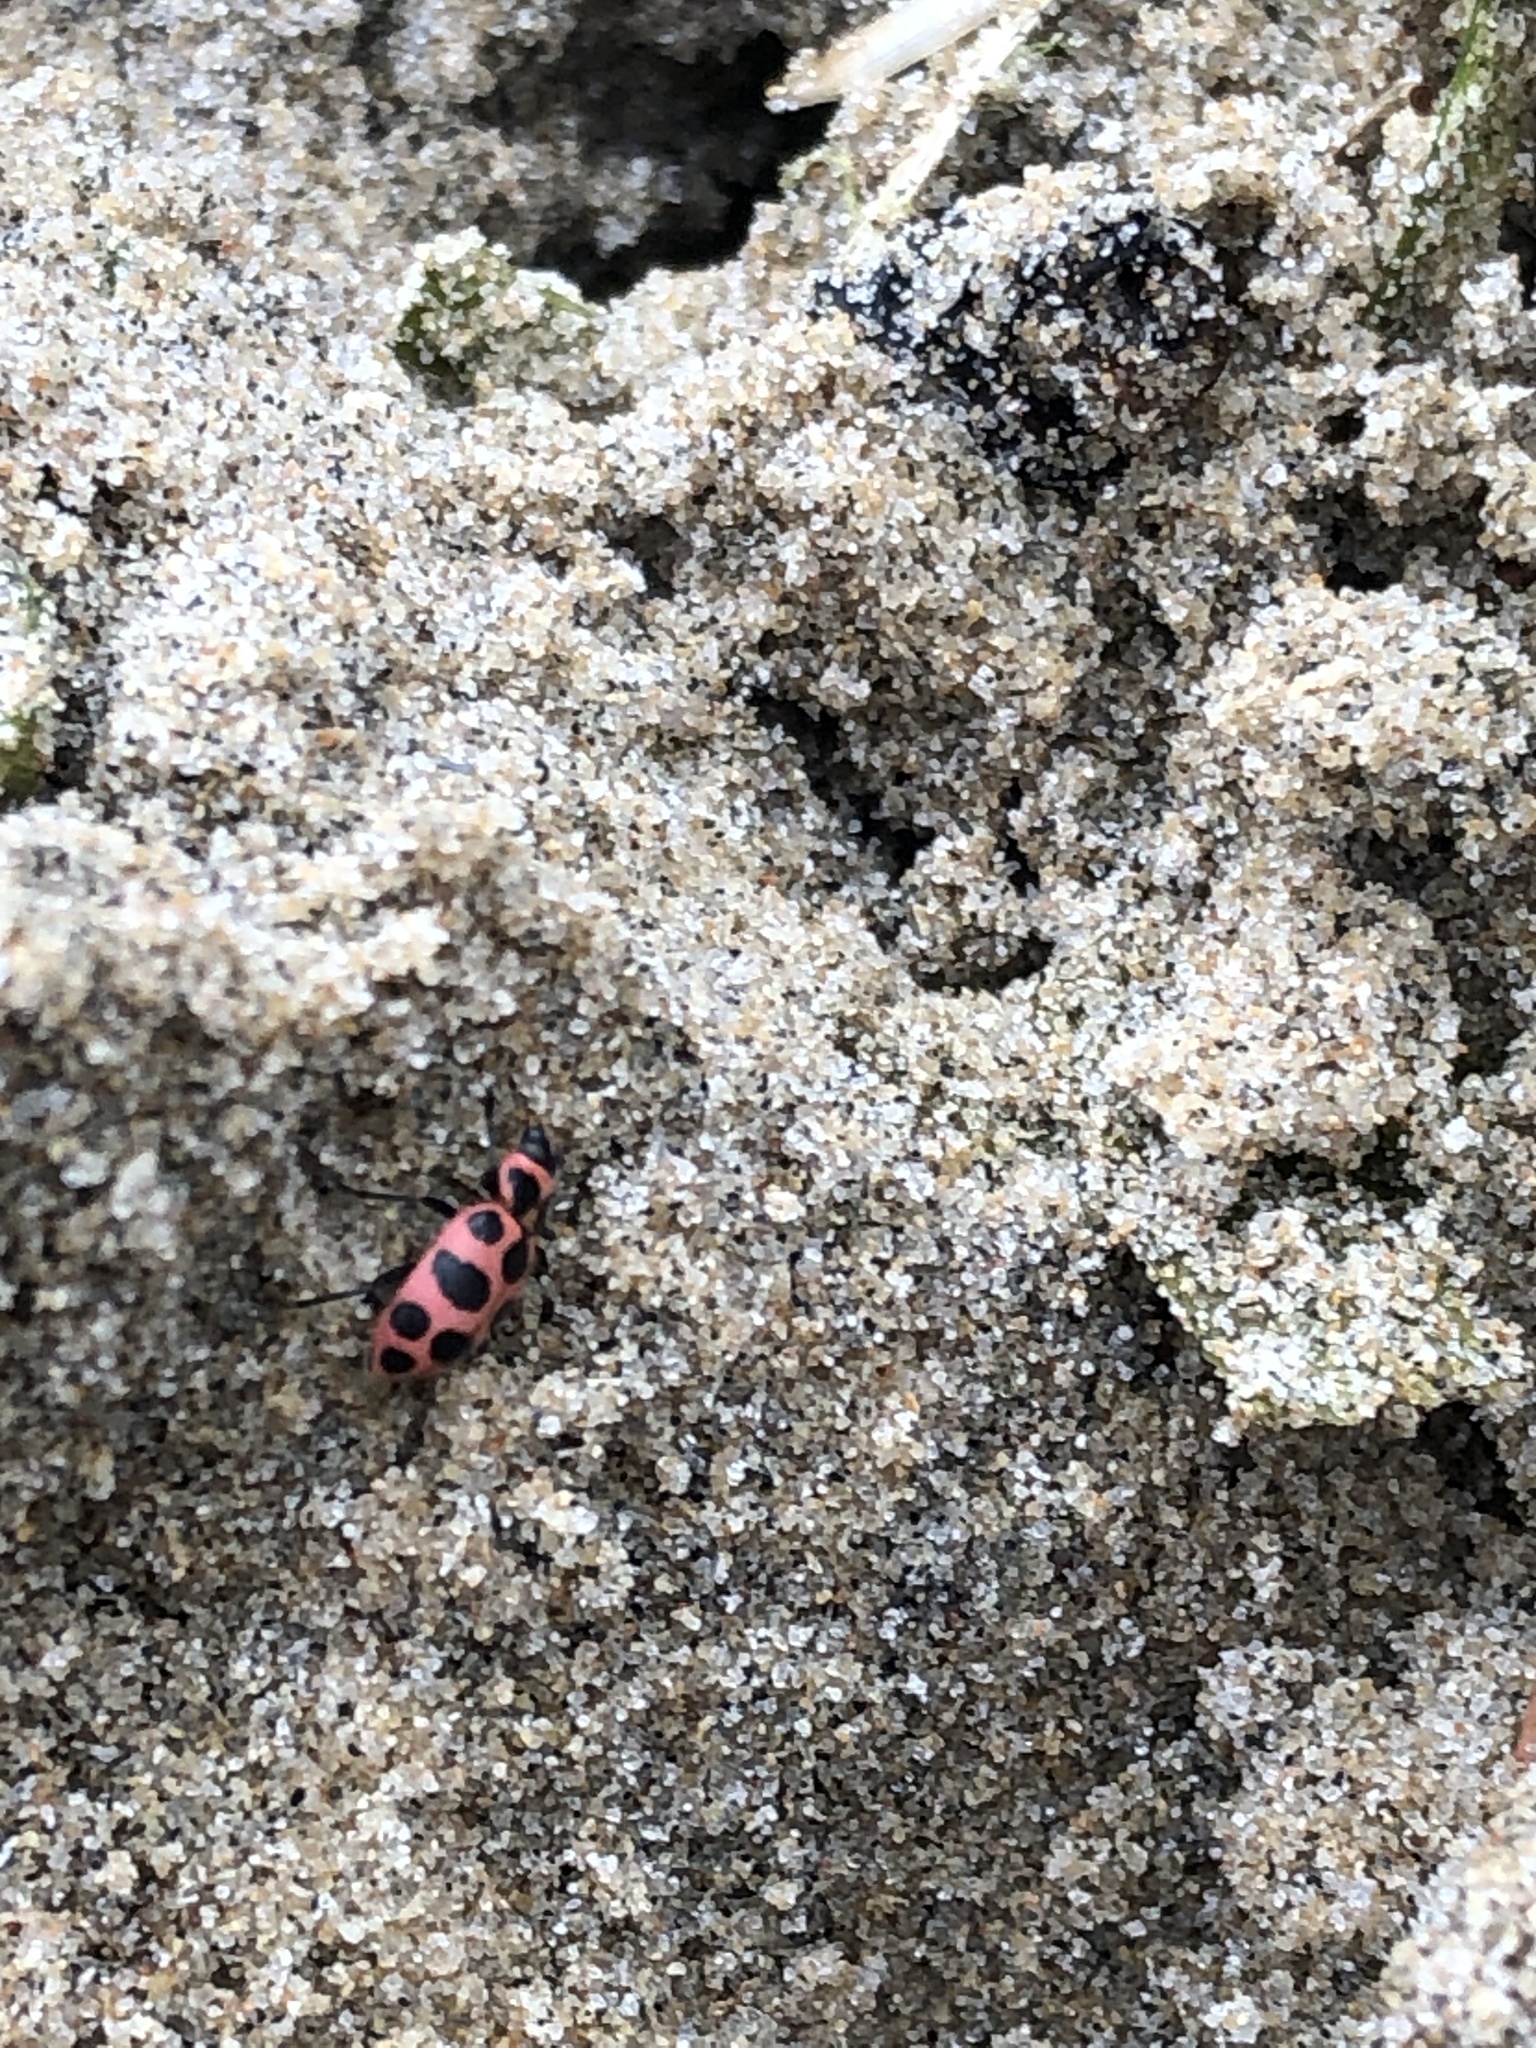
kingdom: Animalia
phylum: Arthropoda
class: Insecta
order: Coleoptera
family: Coccinellidae
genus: Coleomegilla
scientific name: Coleomegilla maculata
